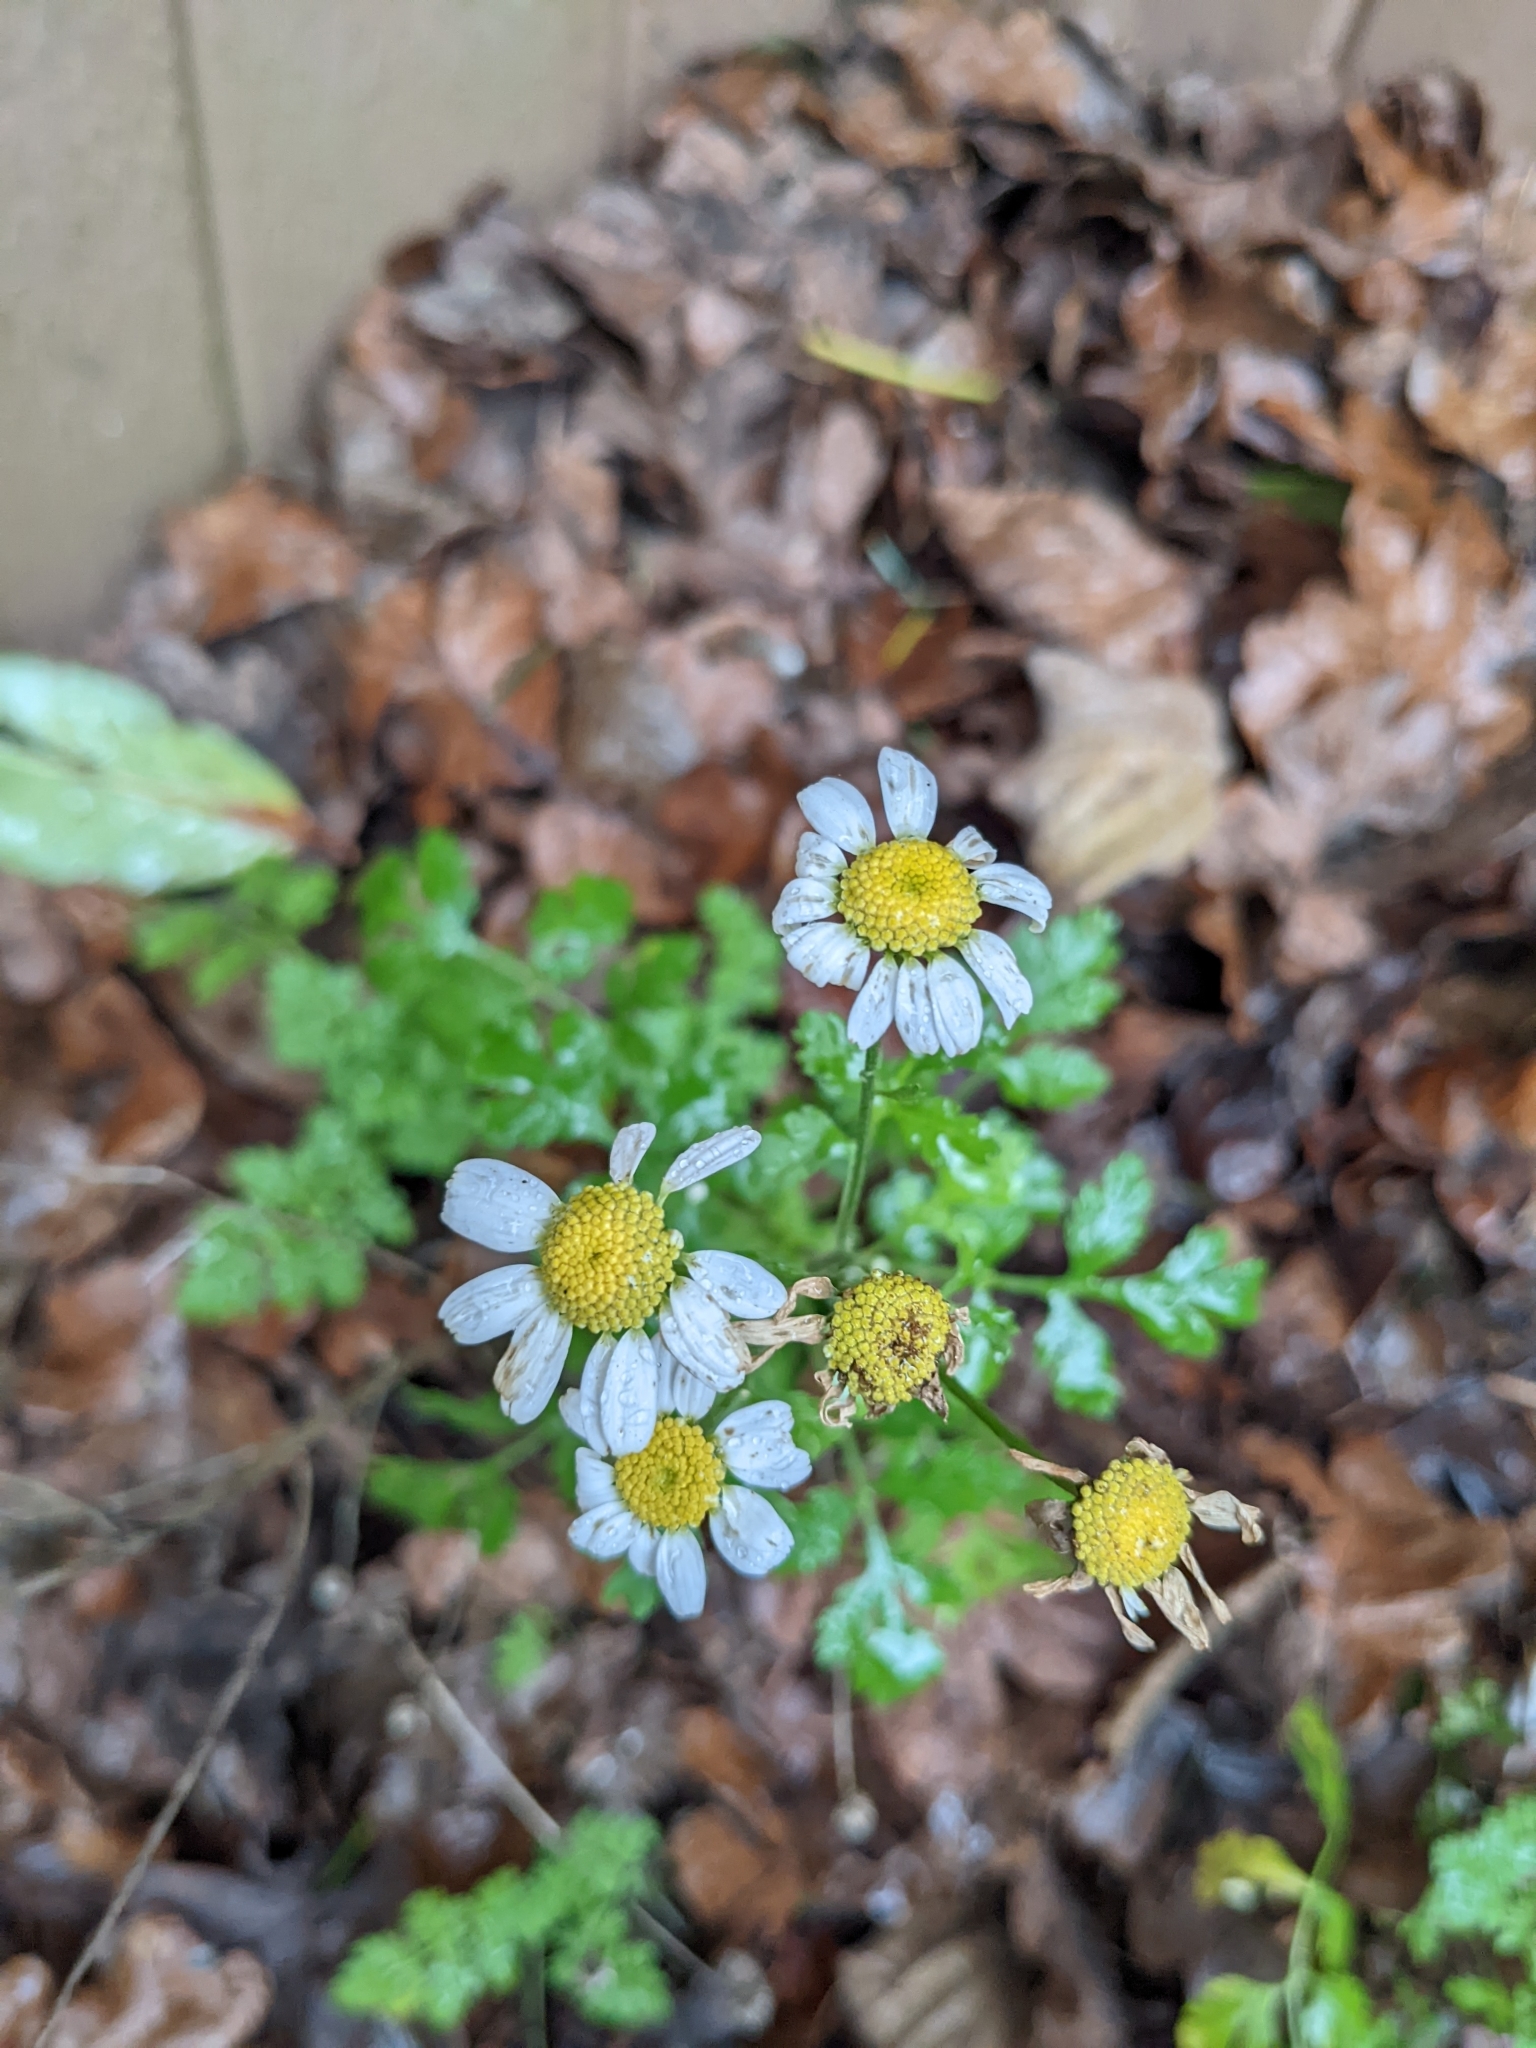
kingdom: Plantae
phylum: Tracheophyta
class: Magnoliopsida
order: Asterales
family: Asteraceae
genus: Tanacetum
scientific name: Tanacetum parthenium
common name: Feverfew
